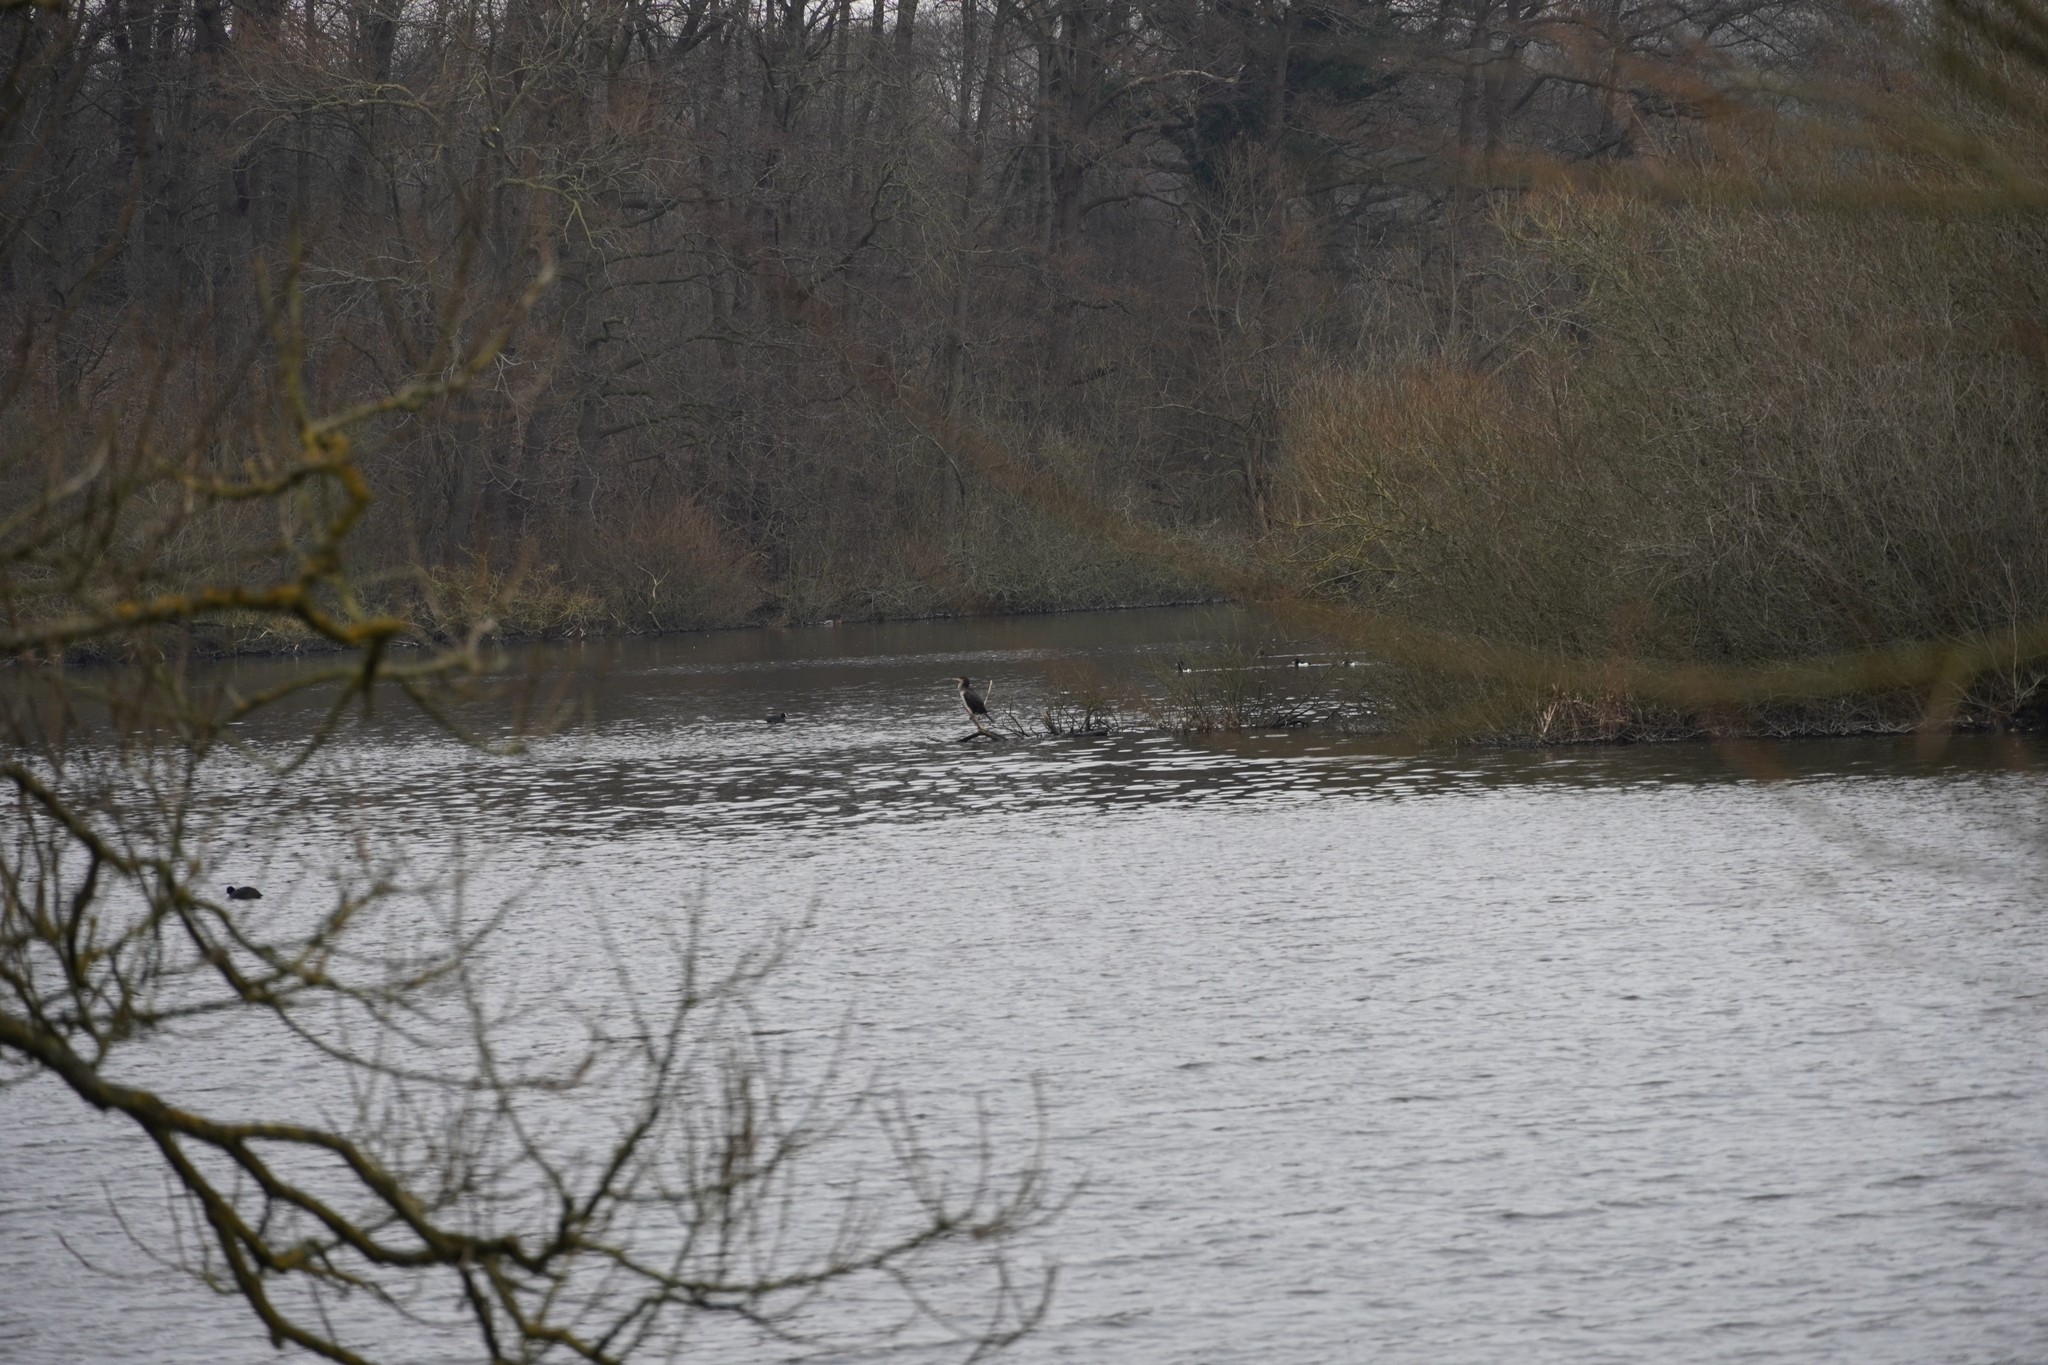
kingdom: Animalia
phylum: Chordata
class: Aves
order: Suliformes
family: Phalacrocoracidae
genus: Phalacrocorax
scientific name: Phalacrocorax carbo
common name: Great cormorant
